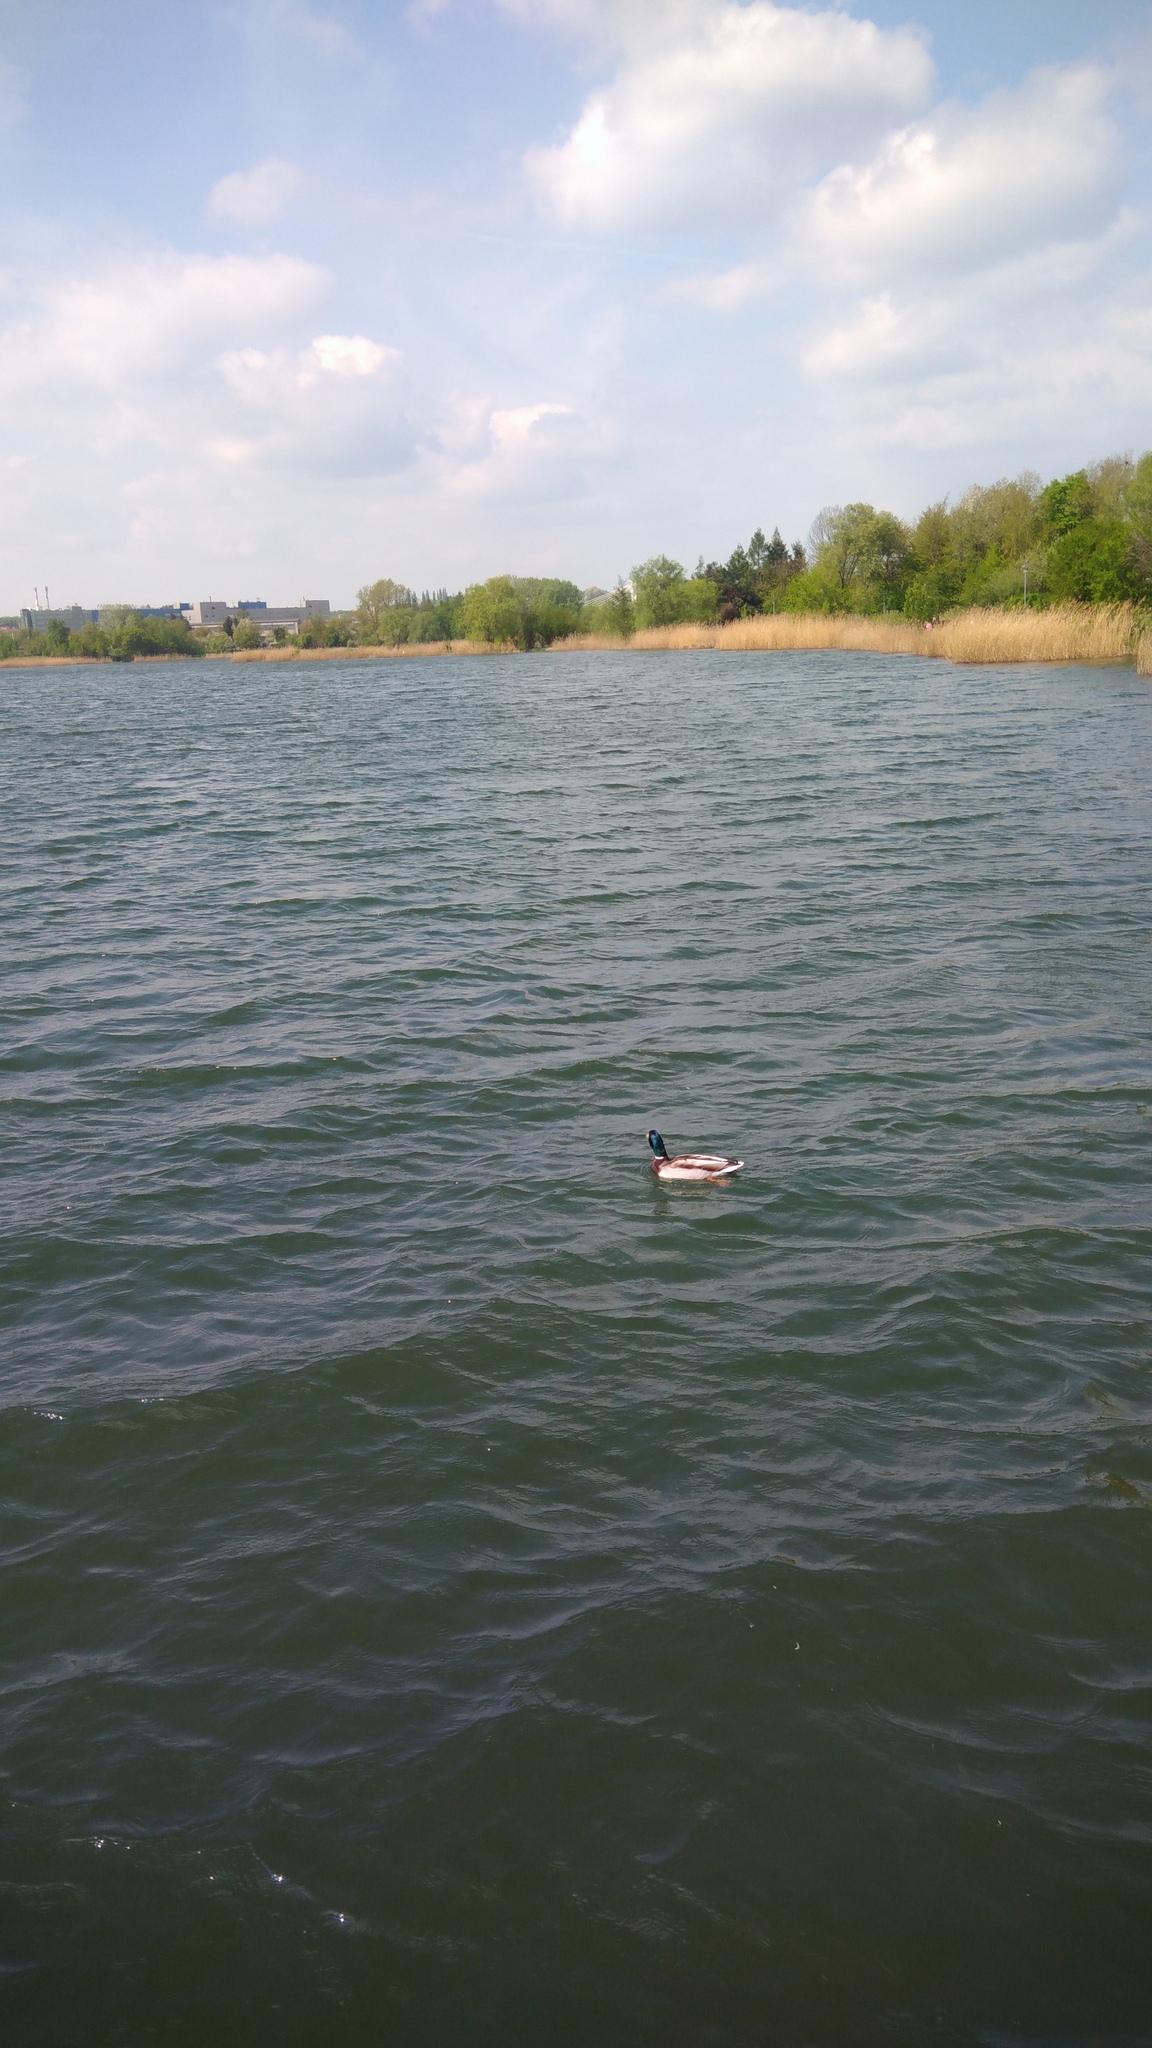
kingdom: Animalia
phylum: Chordata
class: Aves
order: Anseriformes
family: Anatidae
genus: Anas
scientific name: Anas platyrhynchos
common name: Mallard
